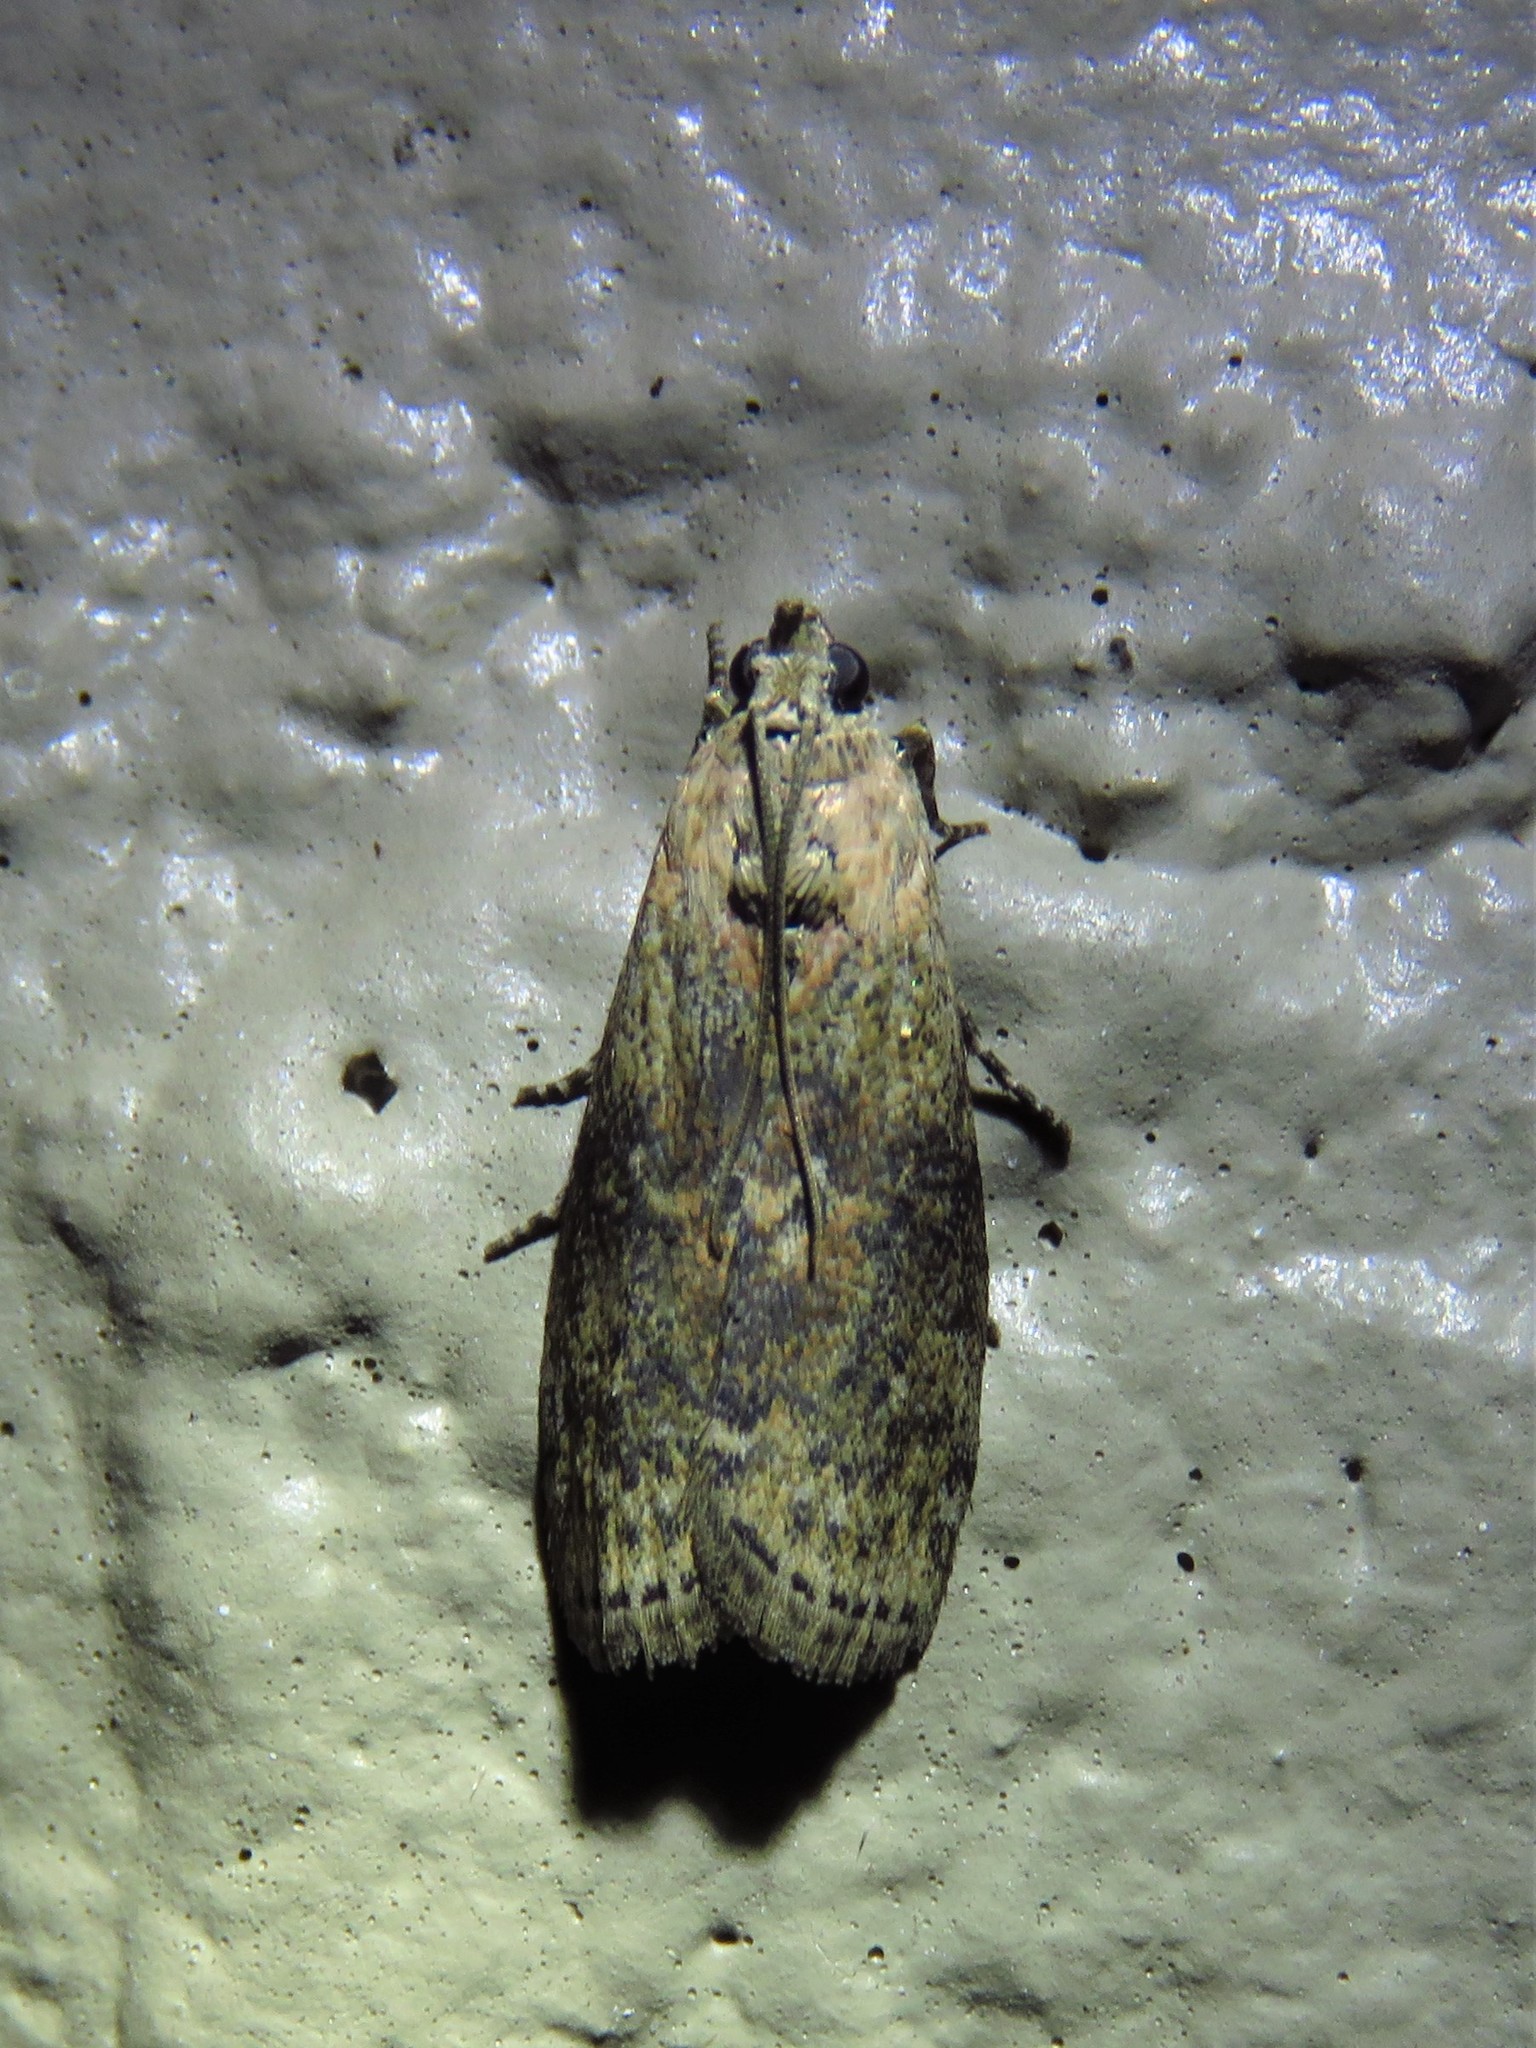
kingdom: Animalia
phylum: Arthropoda
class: Insecta
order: Lepidoptera
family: Pyralidae
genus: Sciota
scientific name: Sciota celtidella
